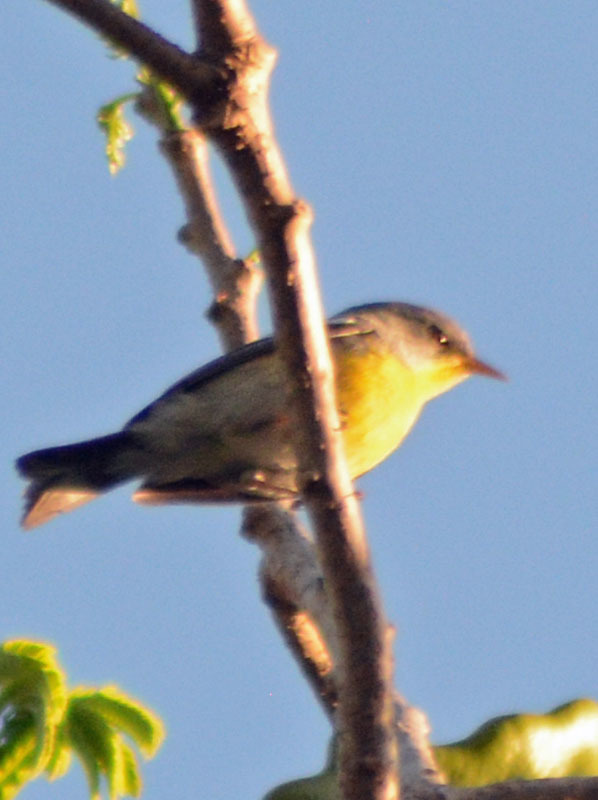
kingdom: Animalia
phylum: Chordata
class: Aves
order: Passeriformes
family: Parulidae
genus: Setophaga
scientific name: Setophaga pitiayumi
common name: Tropical parula
